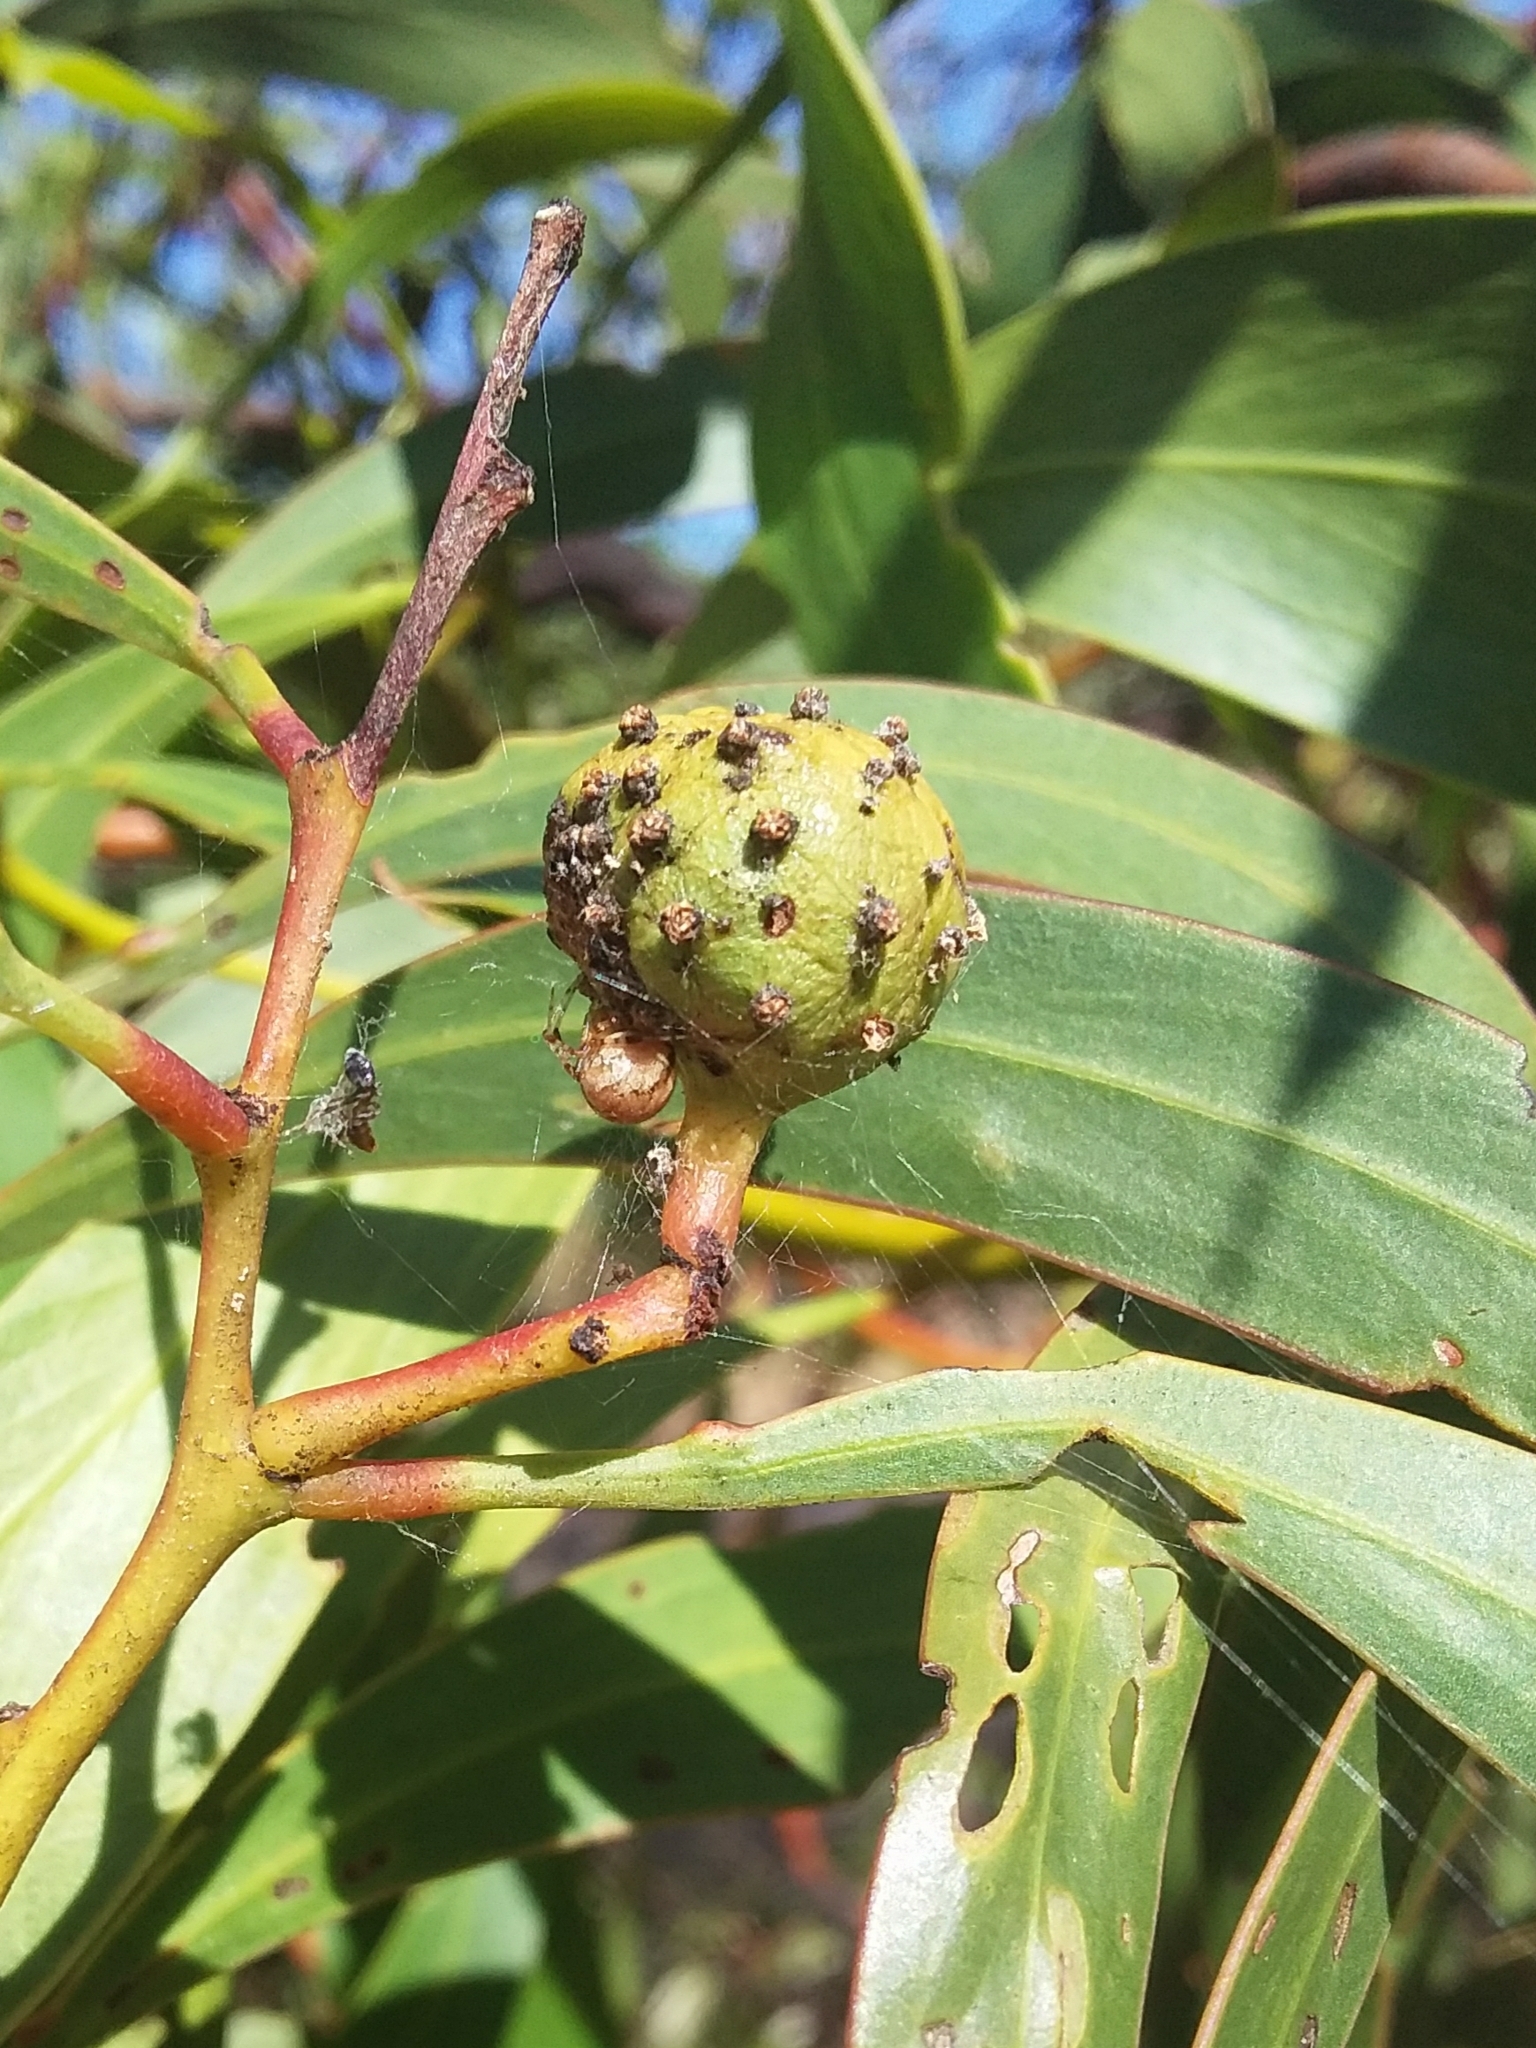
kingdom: Animalia
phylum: Arthropoda
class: Insecta
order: Hymenoptera
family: Pteromalidae
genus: Trichilogaster
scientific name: Trichilogaster signiventris
